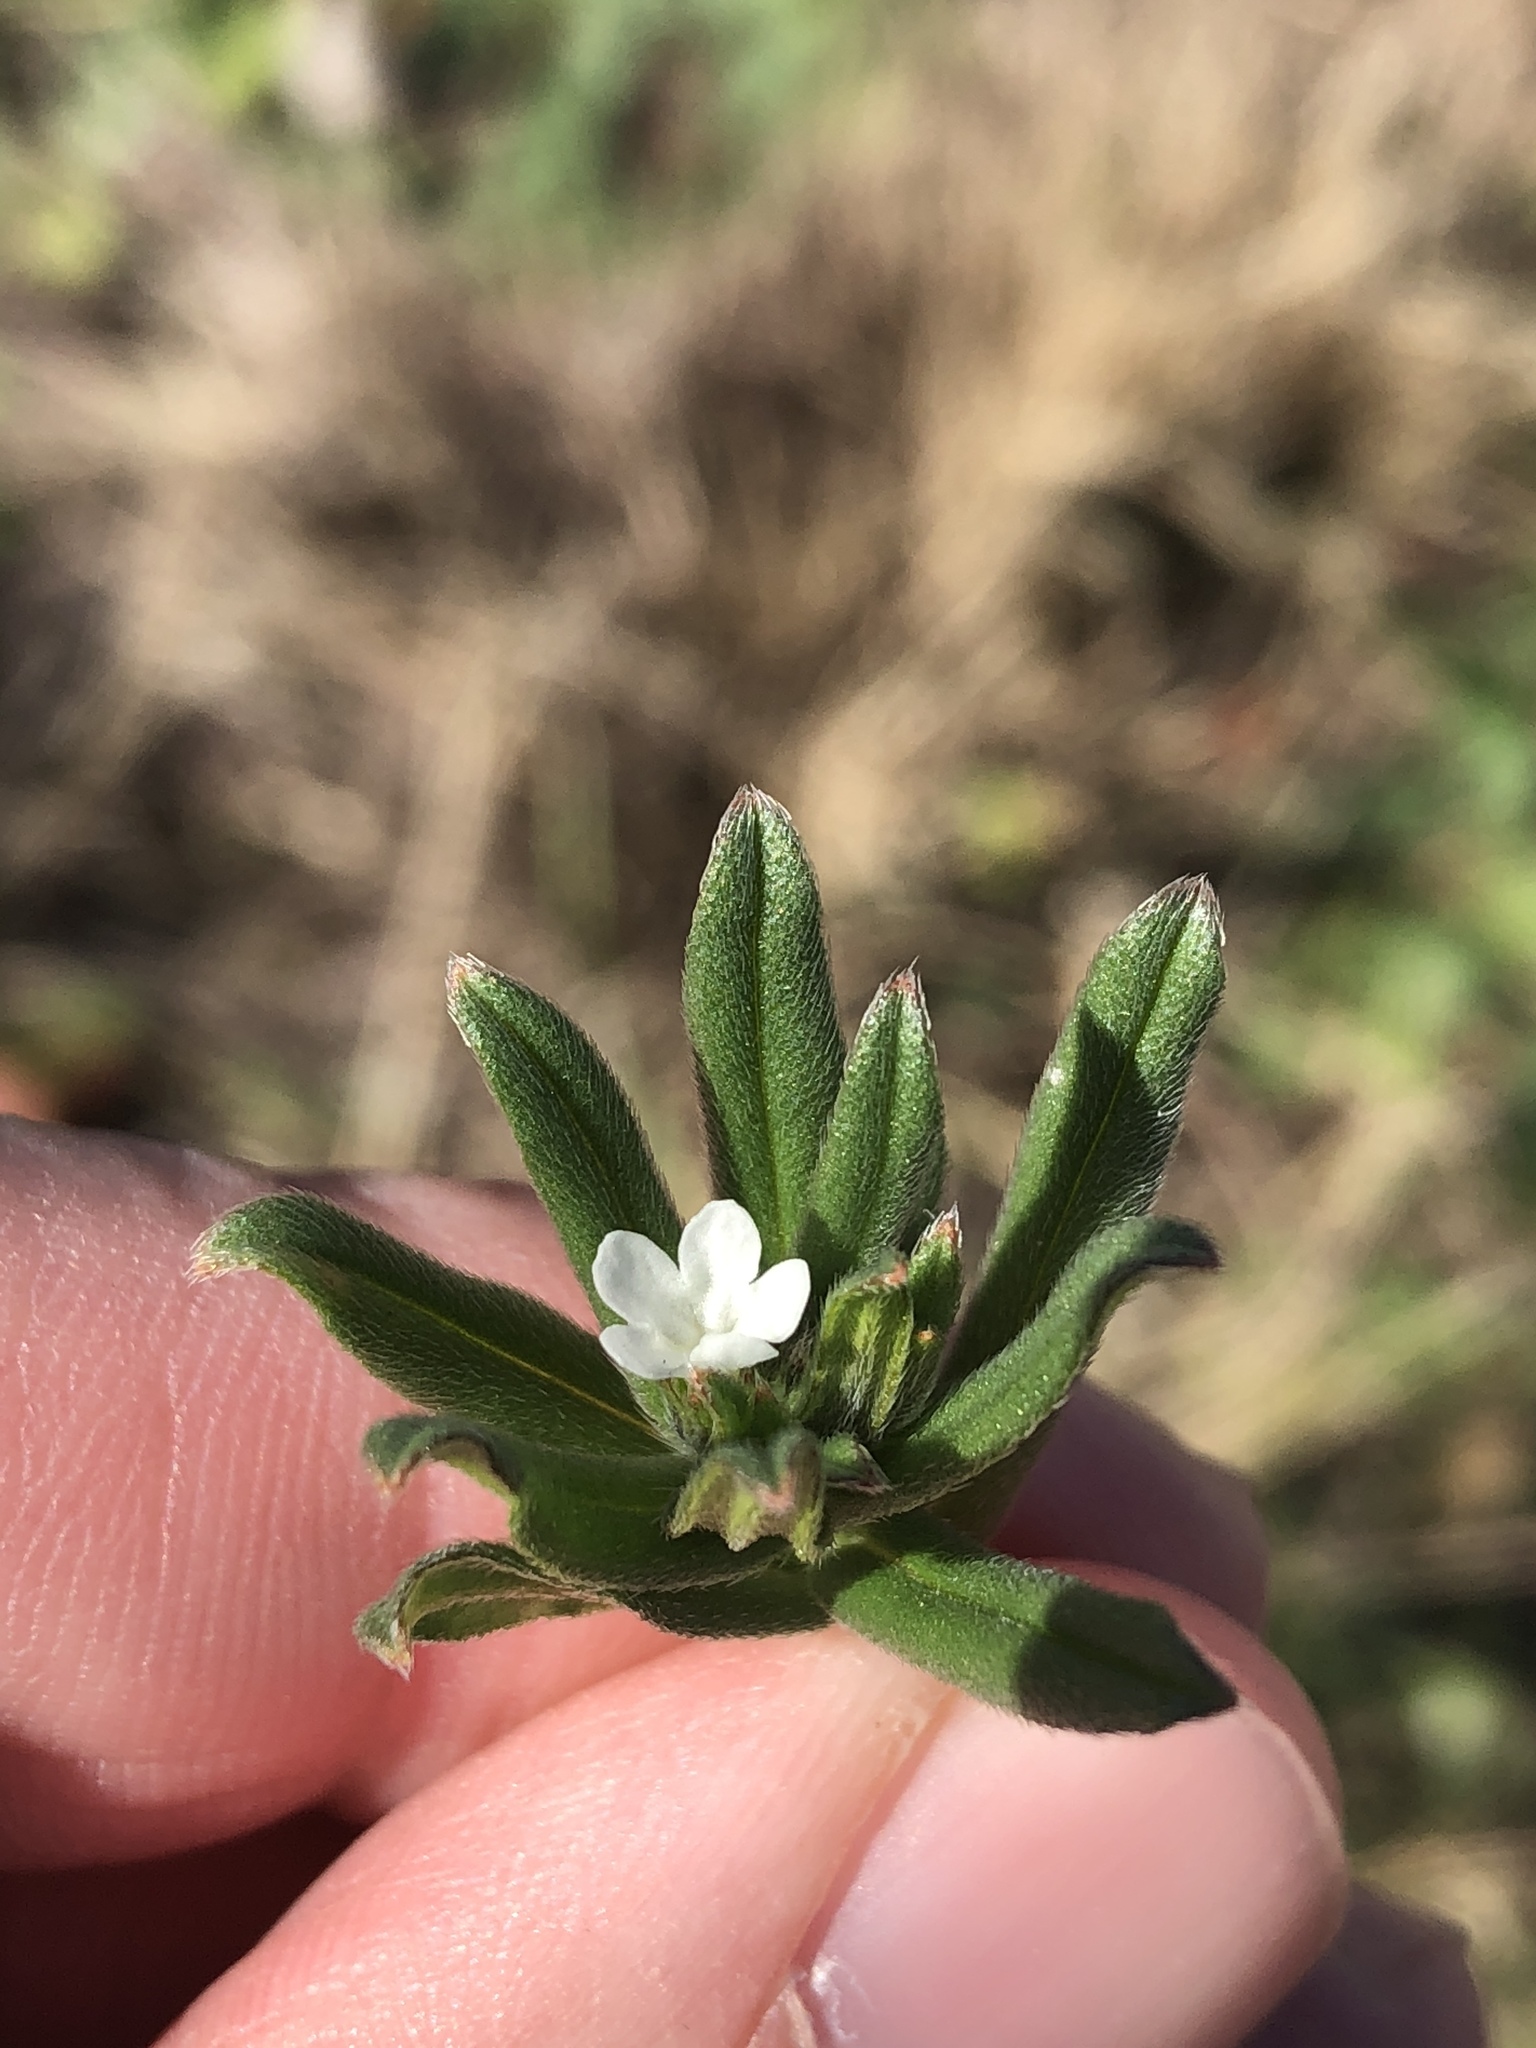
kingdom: Plantae
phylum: Tracheophyta
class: Magnoliopsida
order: Boraginales
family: Boraginaceae
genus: Buglossoides
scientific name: Buglossoides arvensis
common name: Corn gromwell
